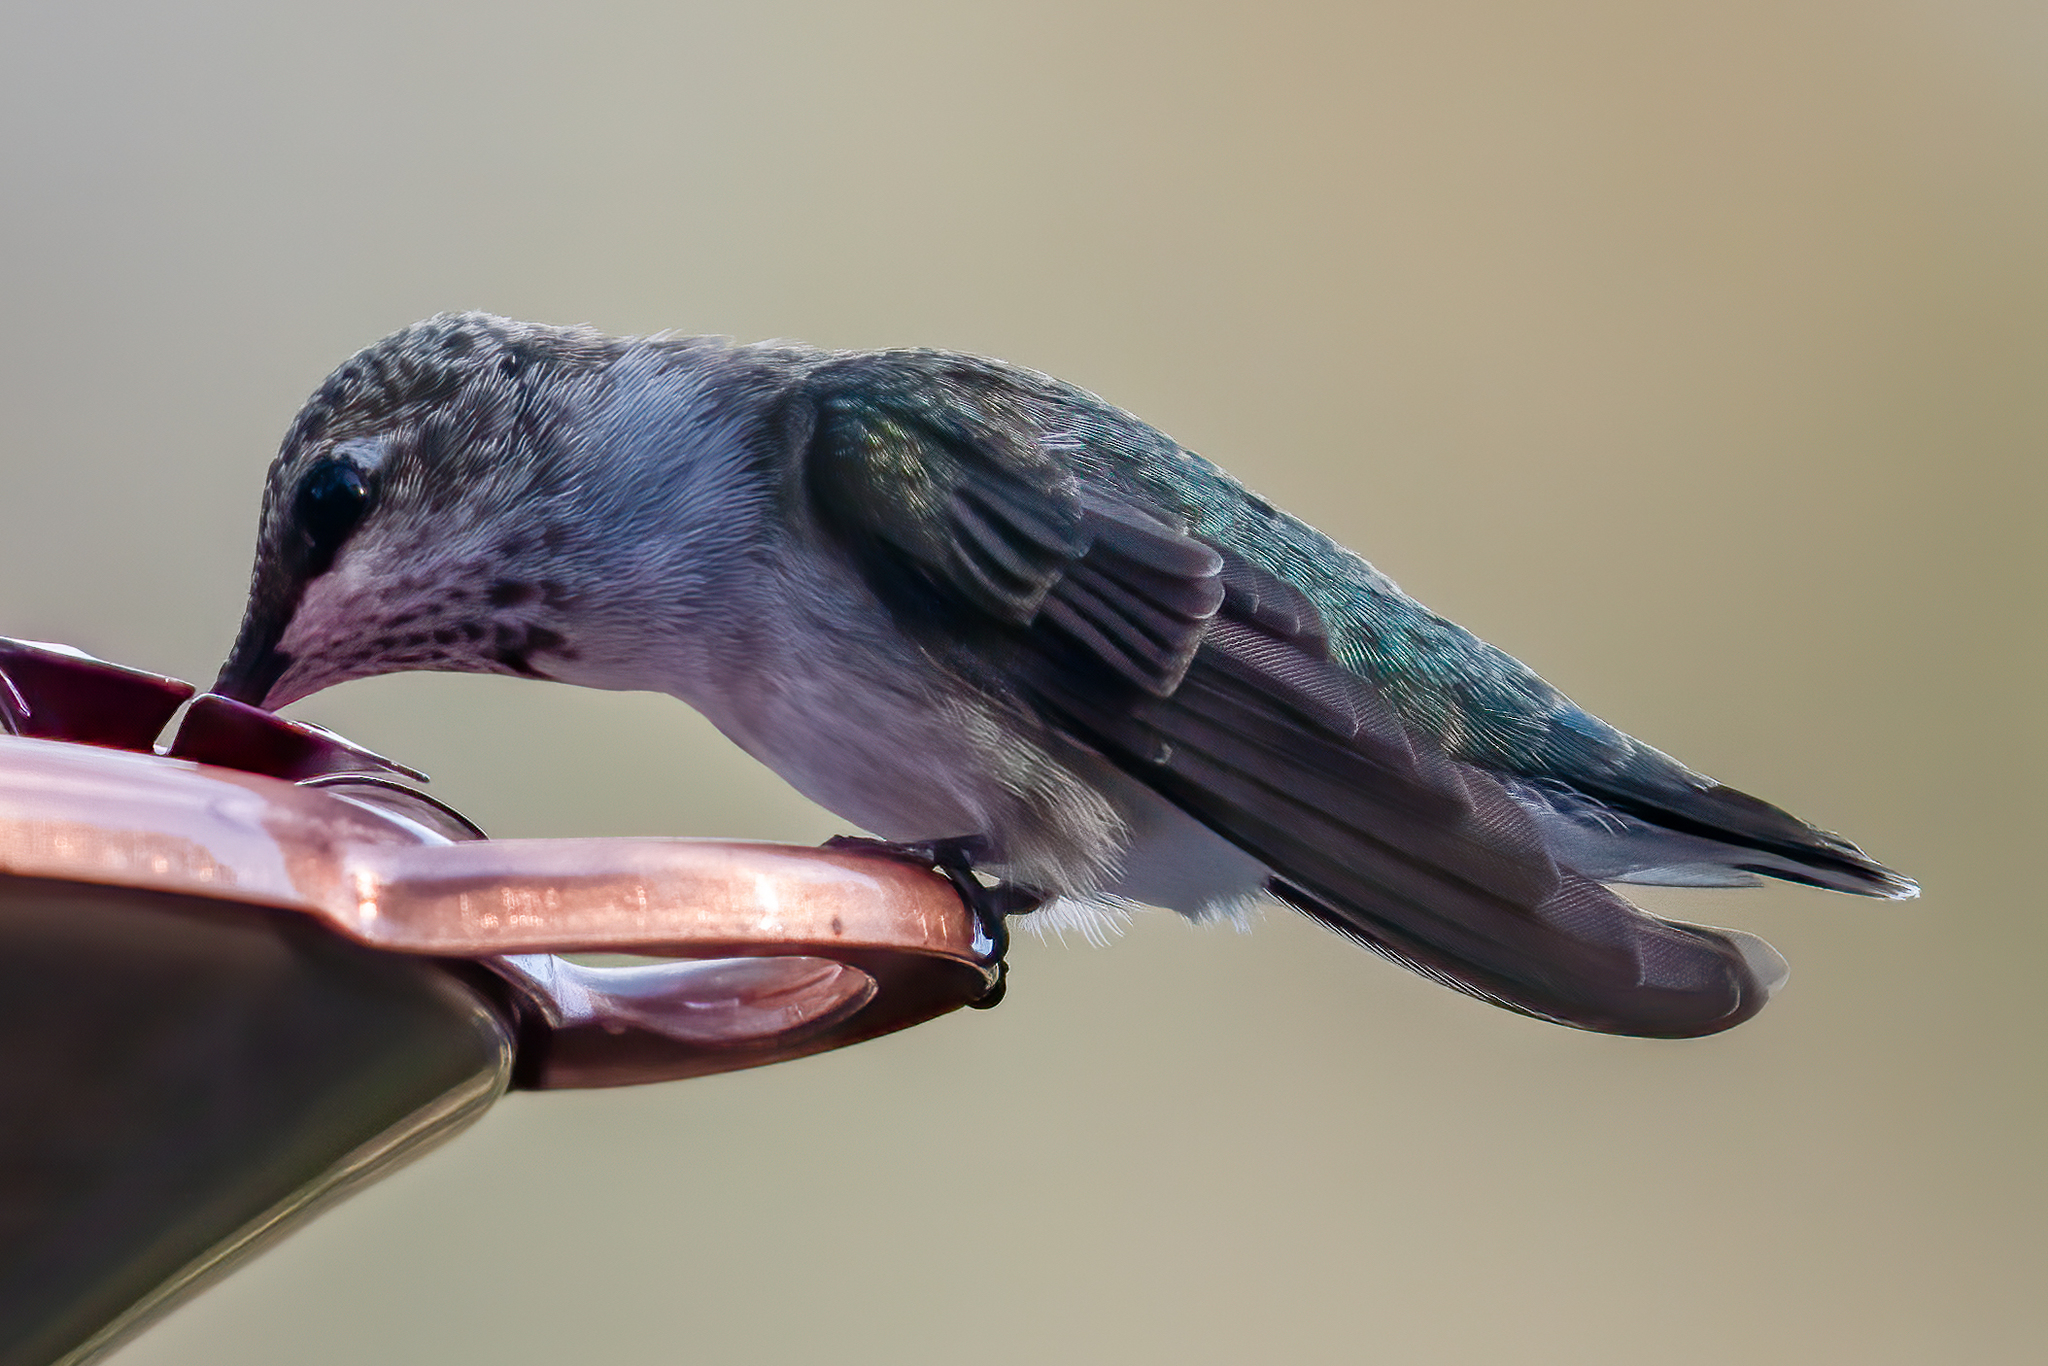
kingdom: Animalia
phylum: Chordata
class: Aves
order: Apodiformes
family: Trochilidae
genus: Archilochus
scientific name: Archilochus alexandri
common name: Black-chinned hummingbird
